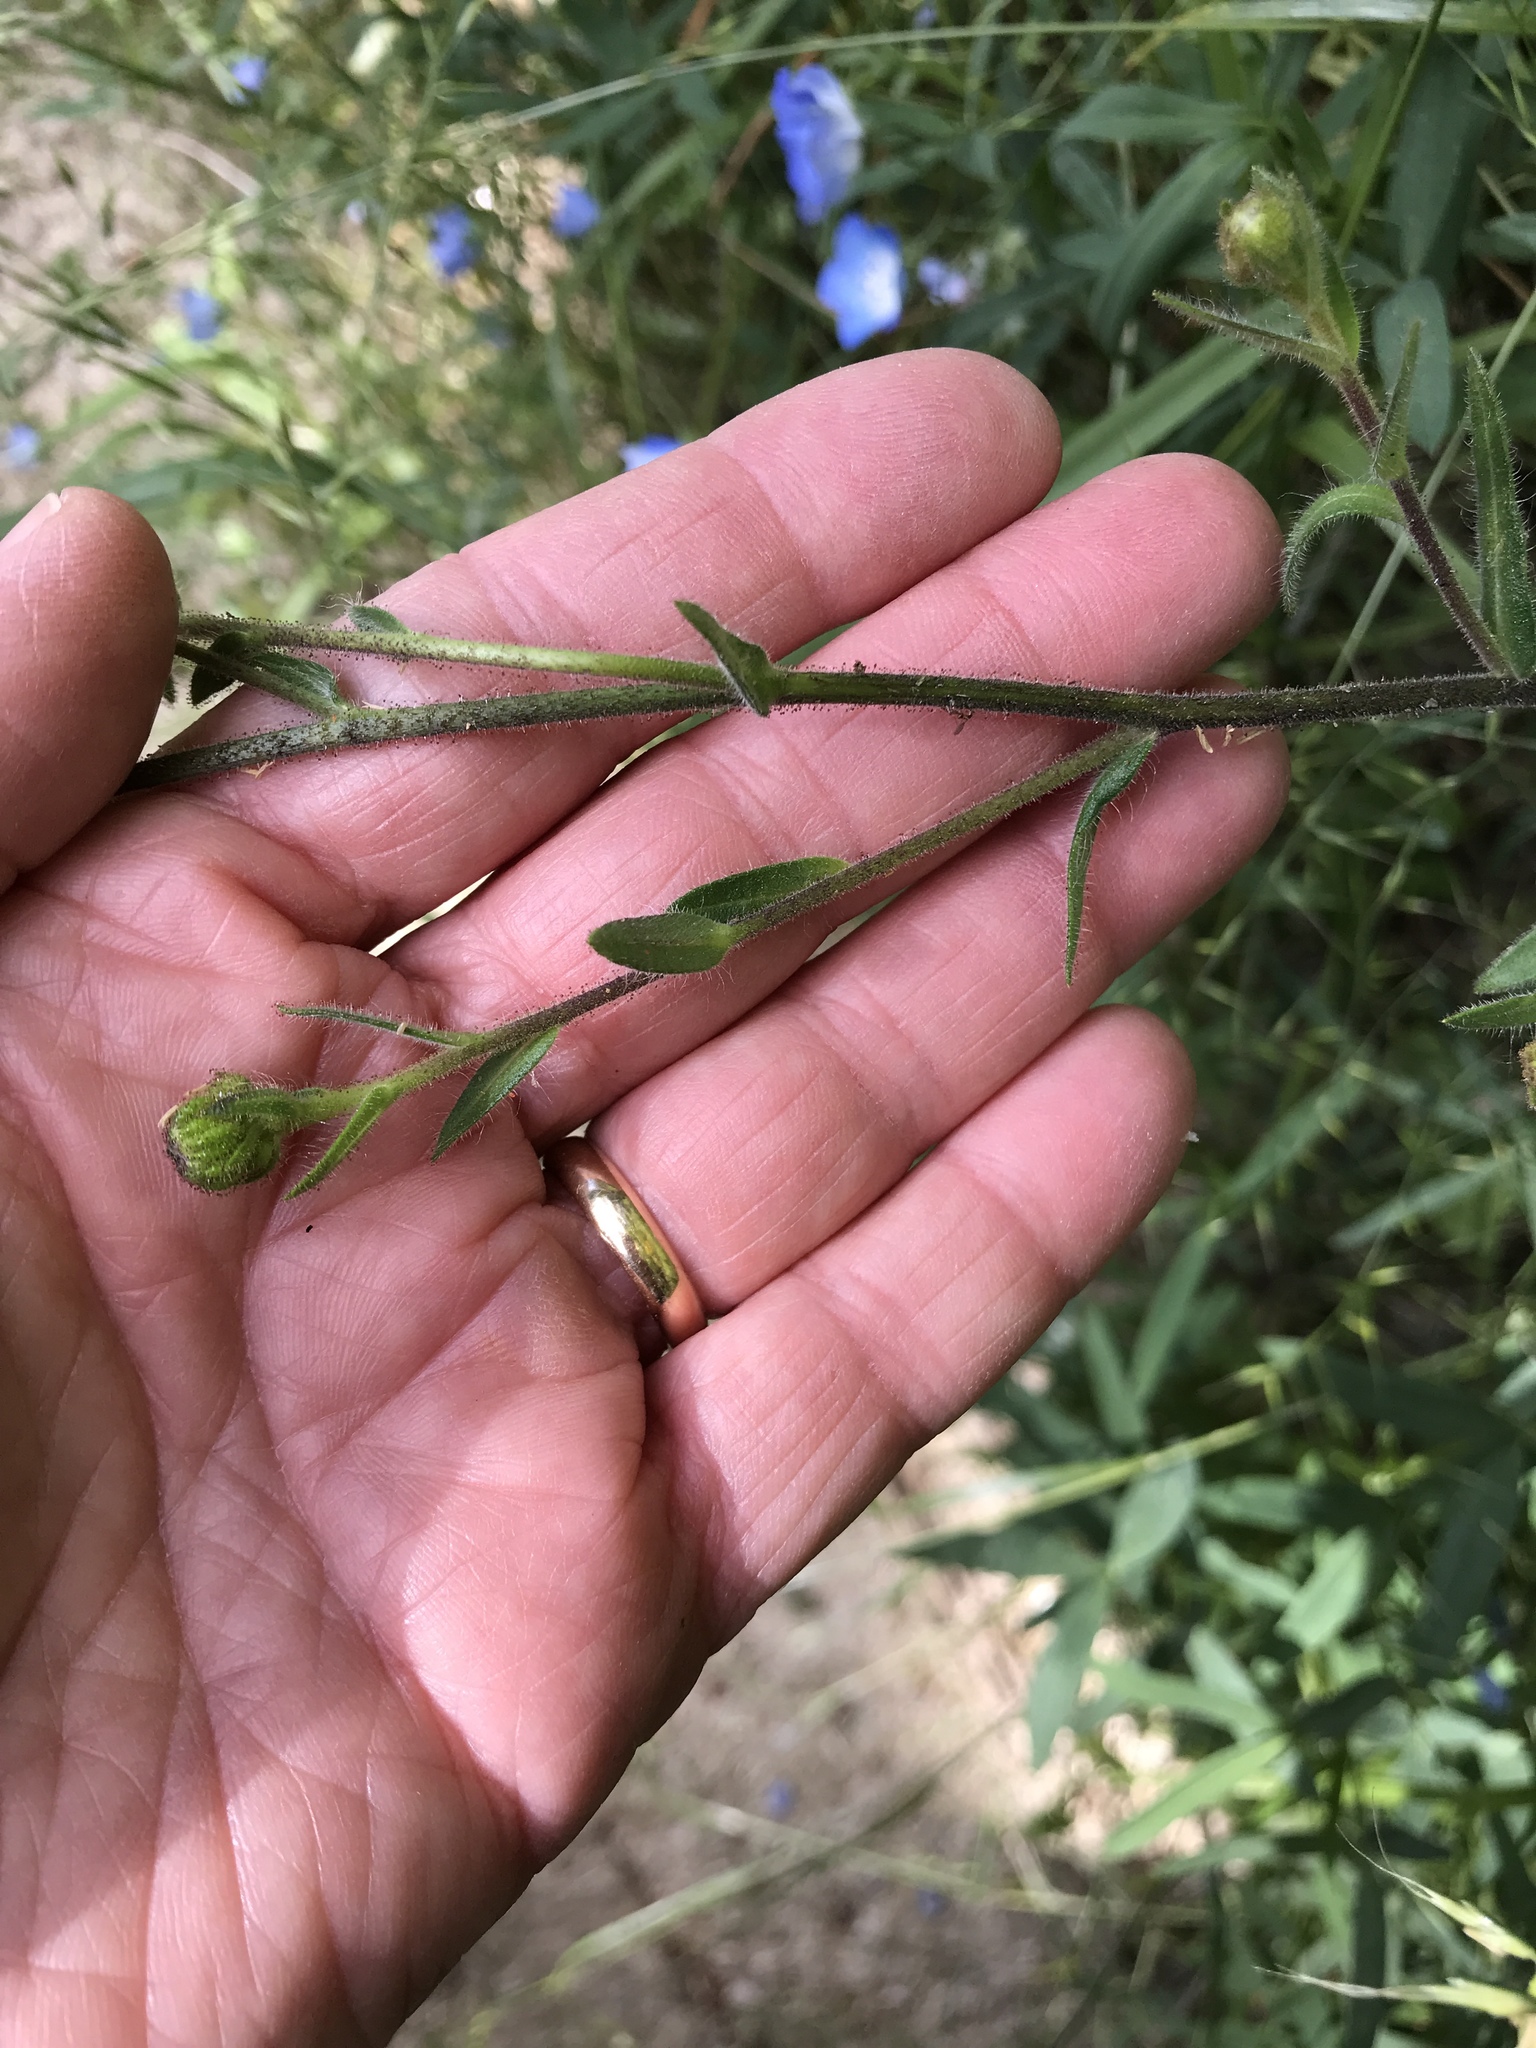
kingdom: Plantae
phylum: Tracheophyta
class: Magnoliopsida
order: Asterales
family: Asteraceae
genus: Anisocarpus
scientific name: Anisocarpus madioides
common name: Woodland madia
